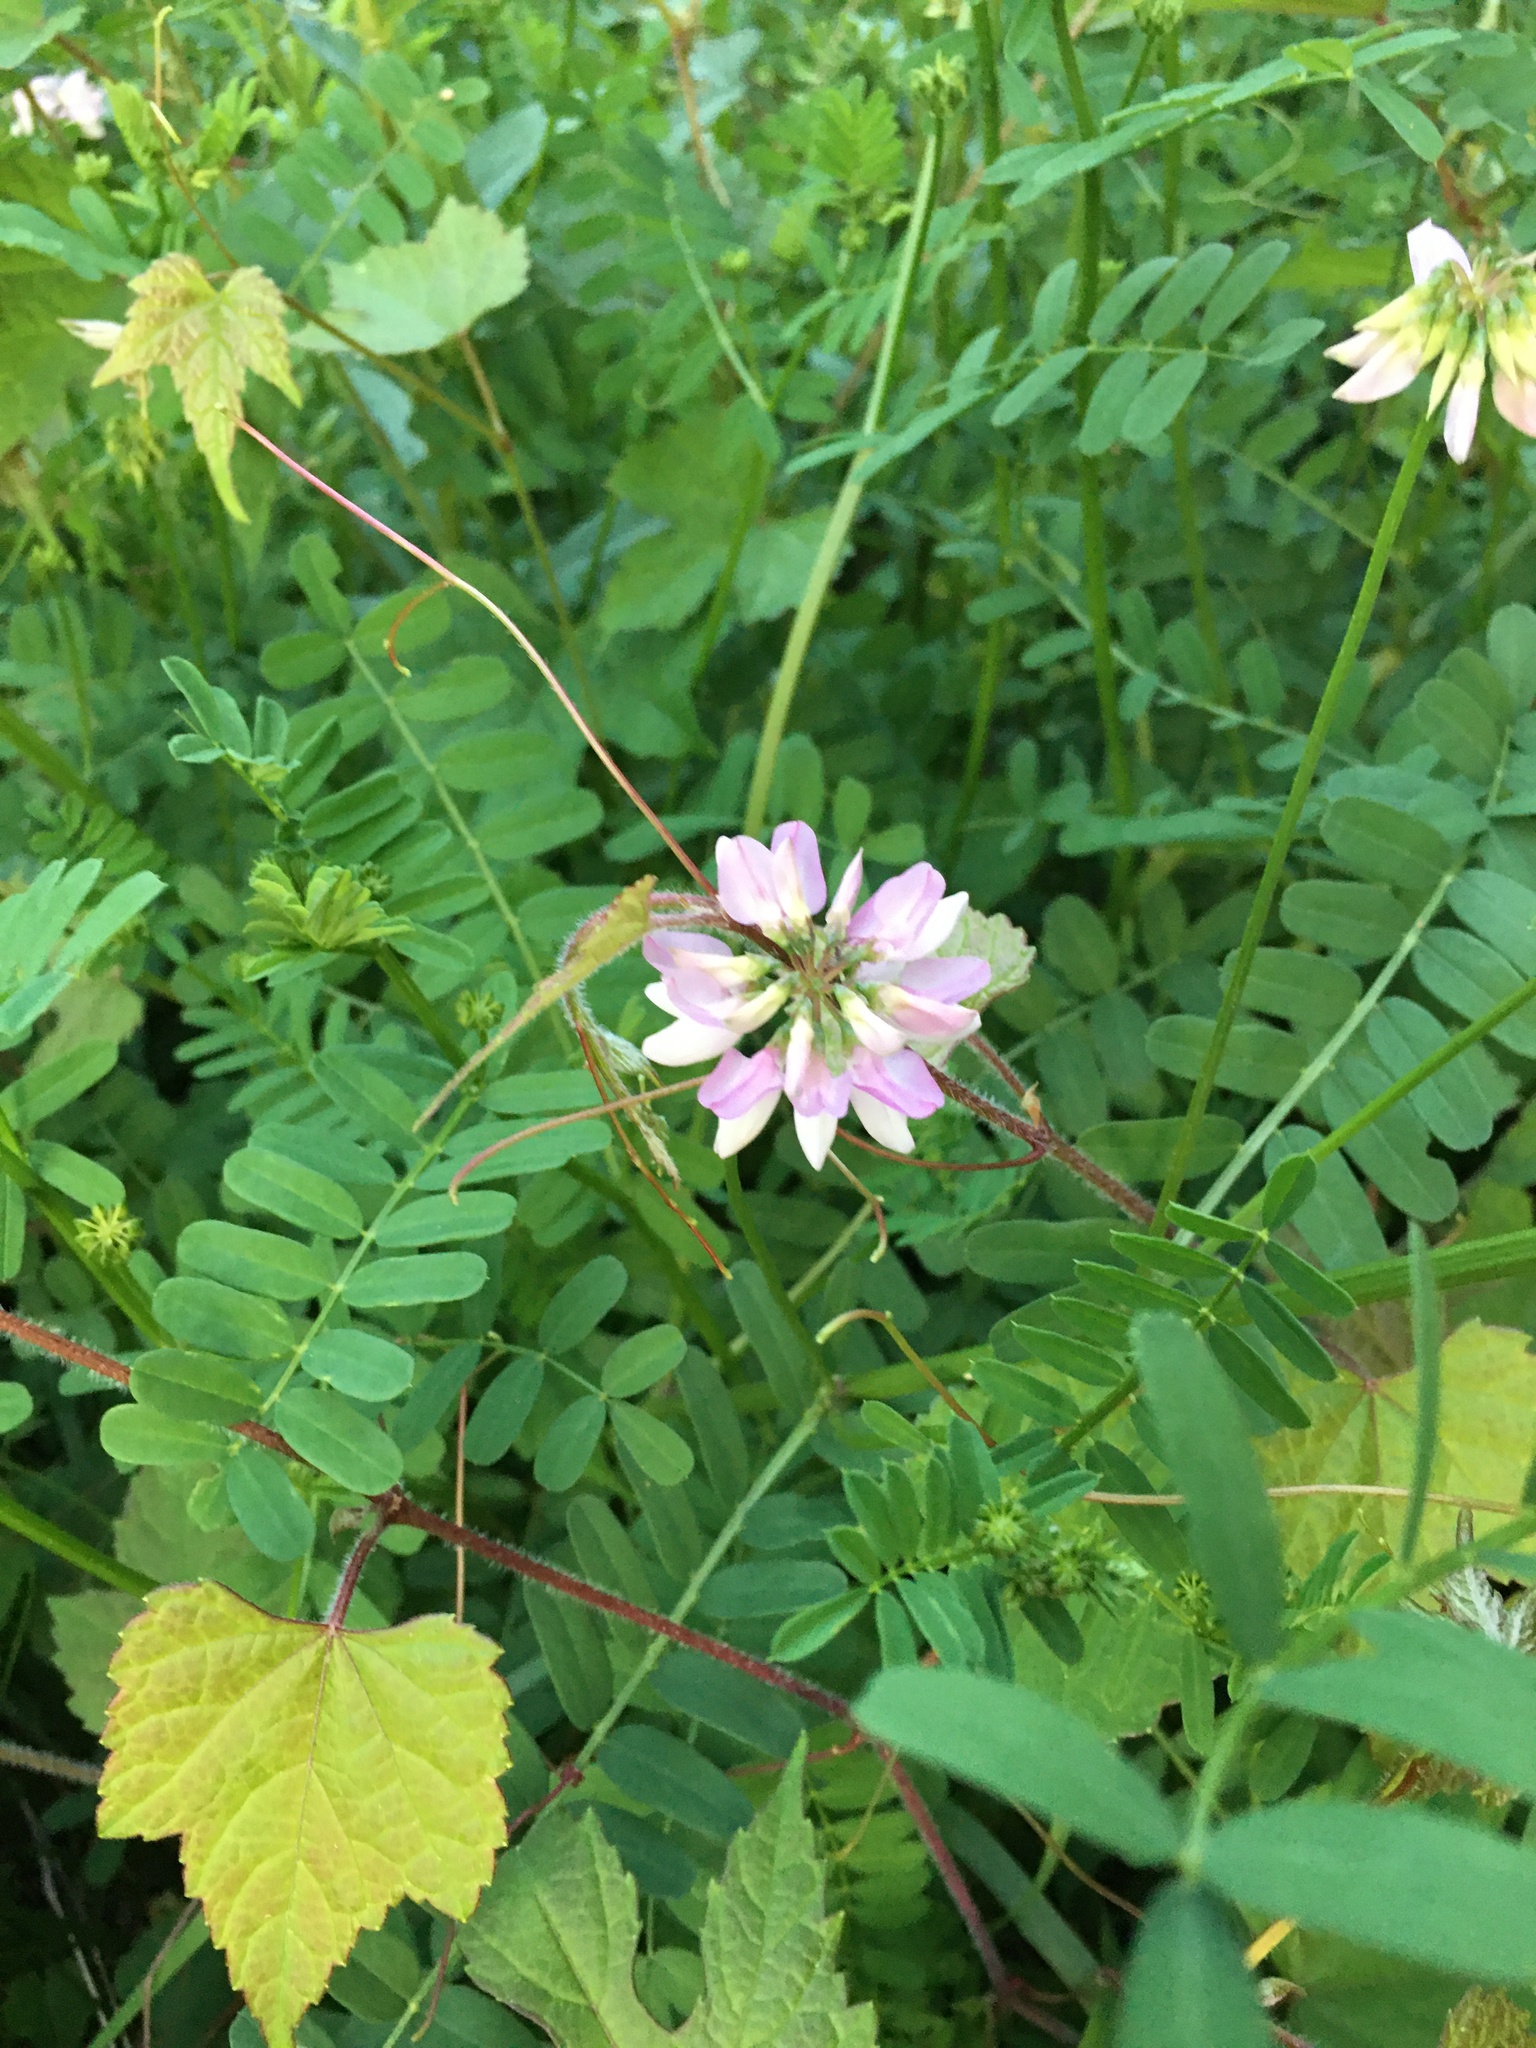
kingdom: Plantae
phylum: Tracheophyta
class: Magnoliopsida
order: Fabales
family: Fabaceae
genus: Coronilla
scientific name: Coronilla varia
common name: Crownvetch
